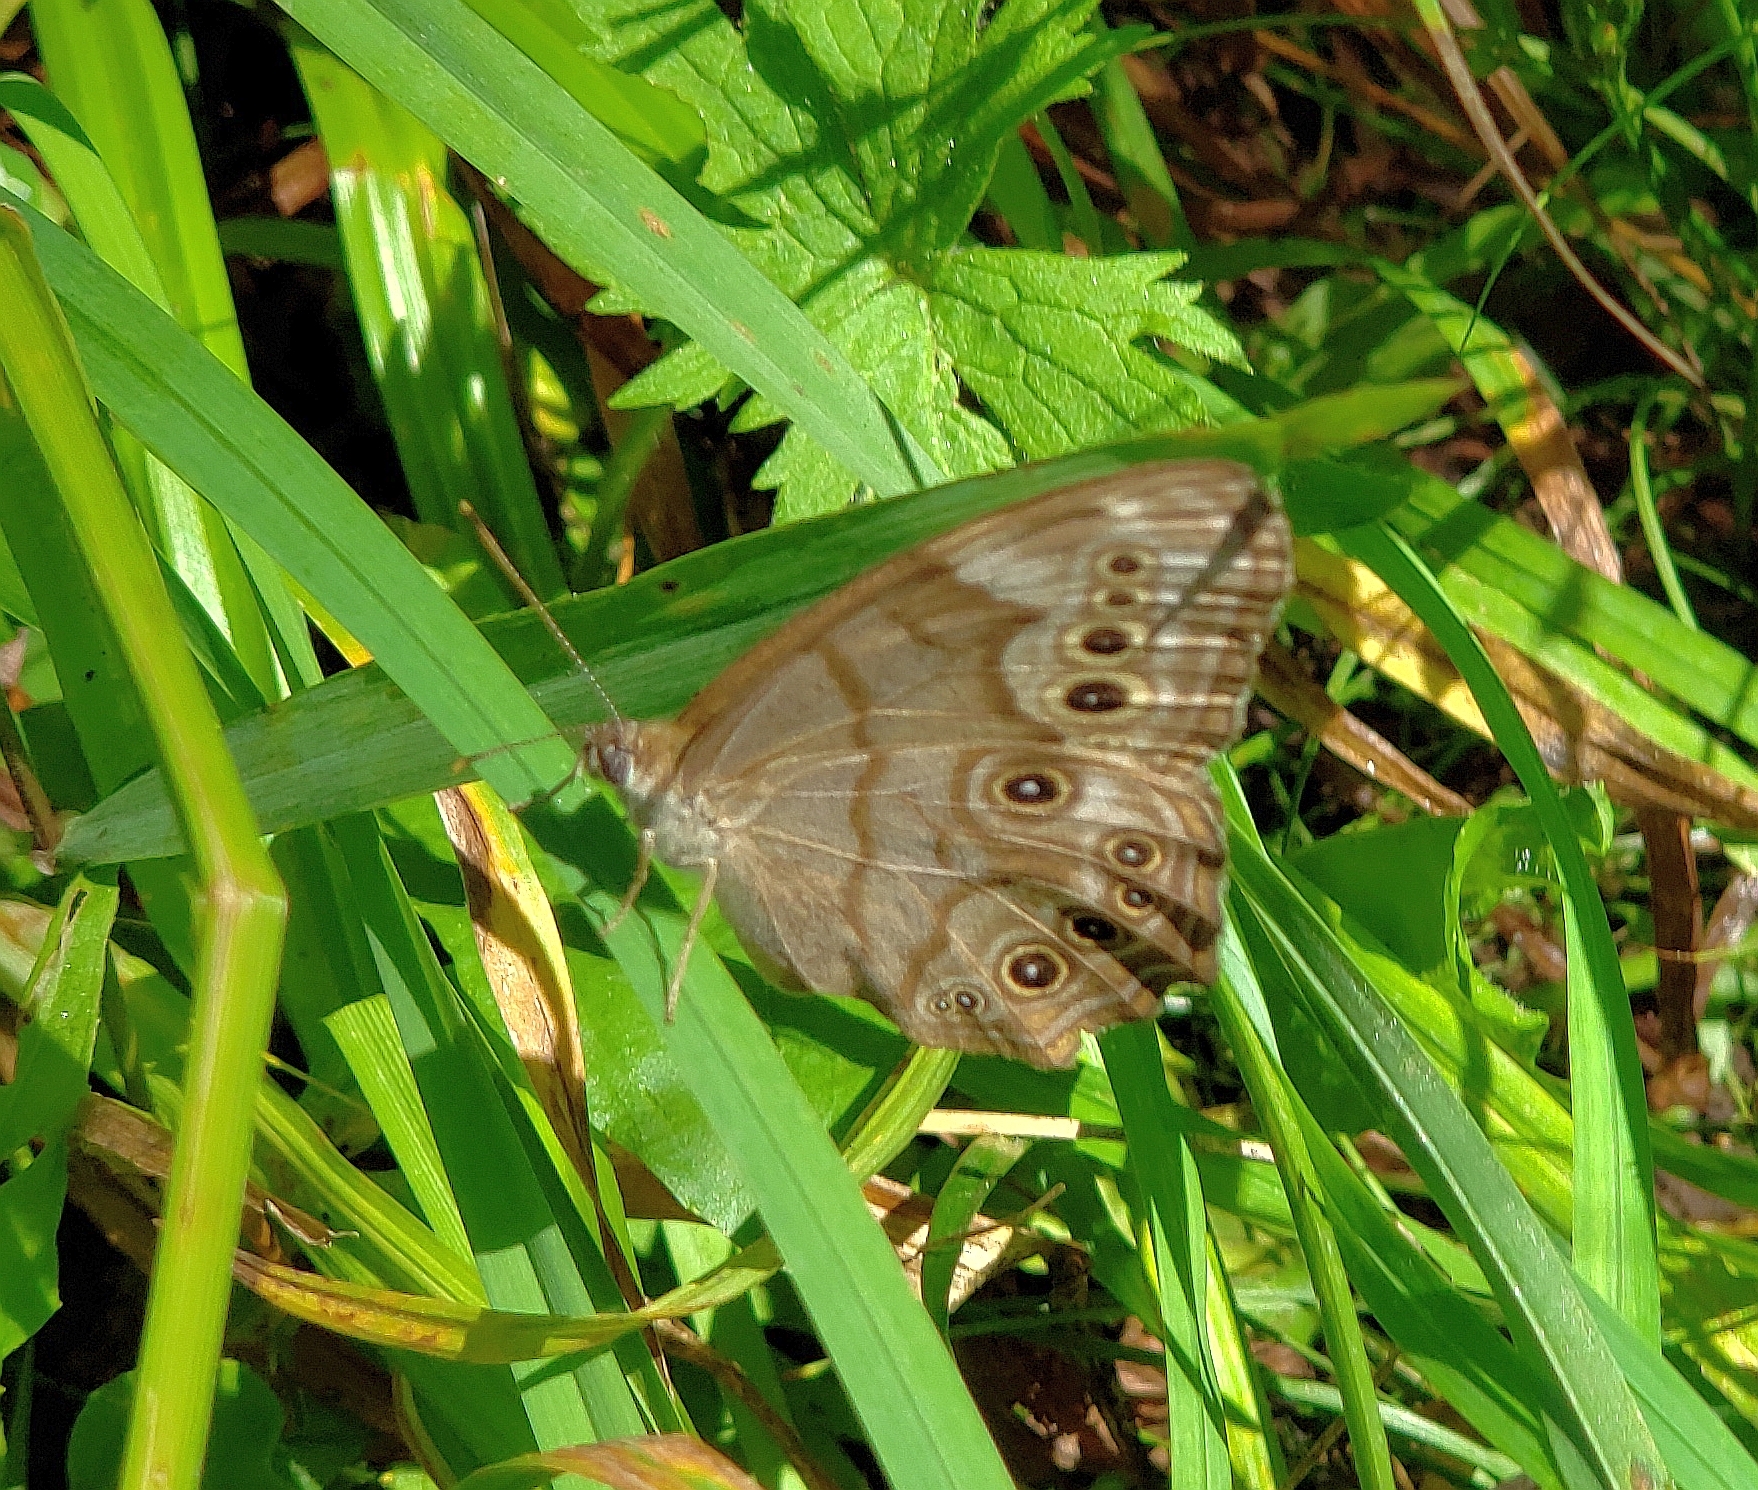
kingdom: Animalia
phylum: Arthropoda
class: Insecta
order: Lepidoptera
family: Nymphalidae
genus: Lethe
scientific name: Lethe anthedon
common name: Northern pearly-eye
